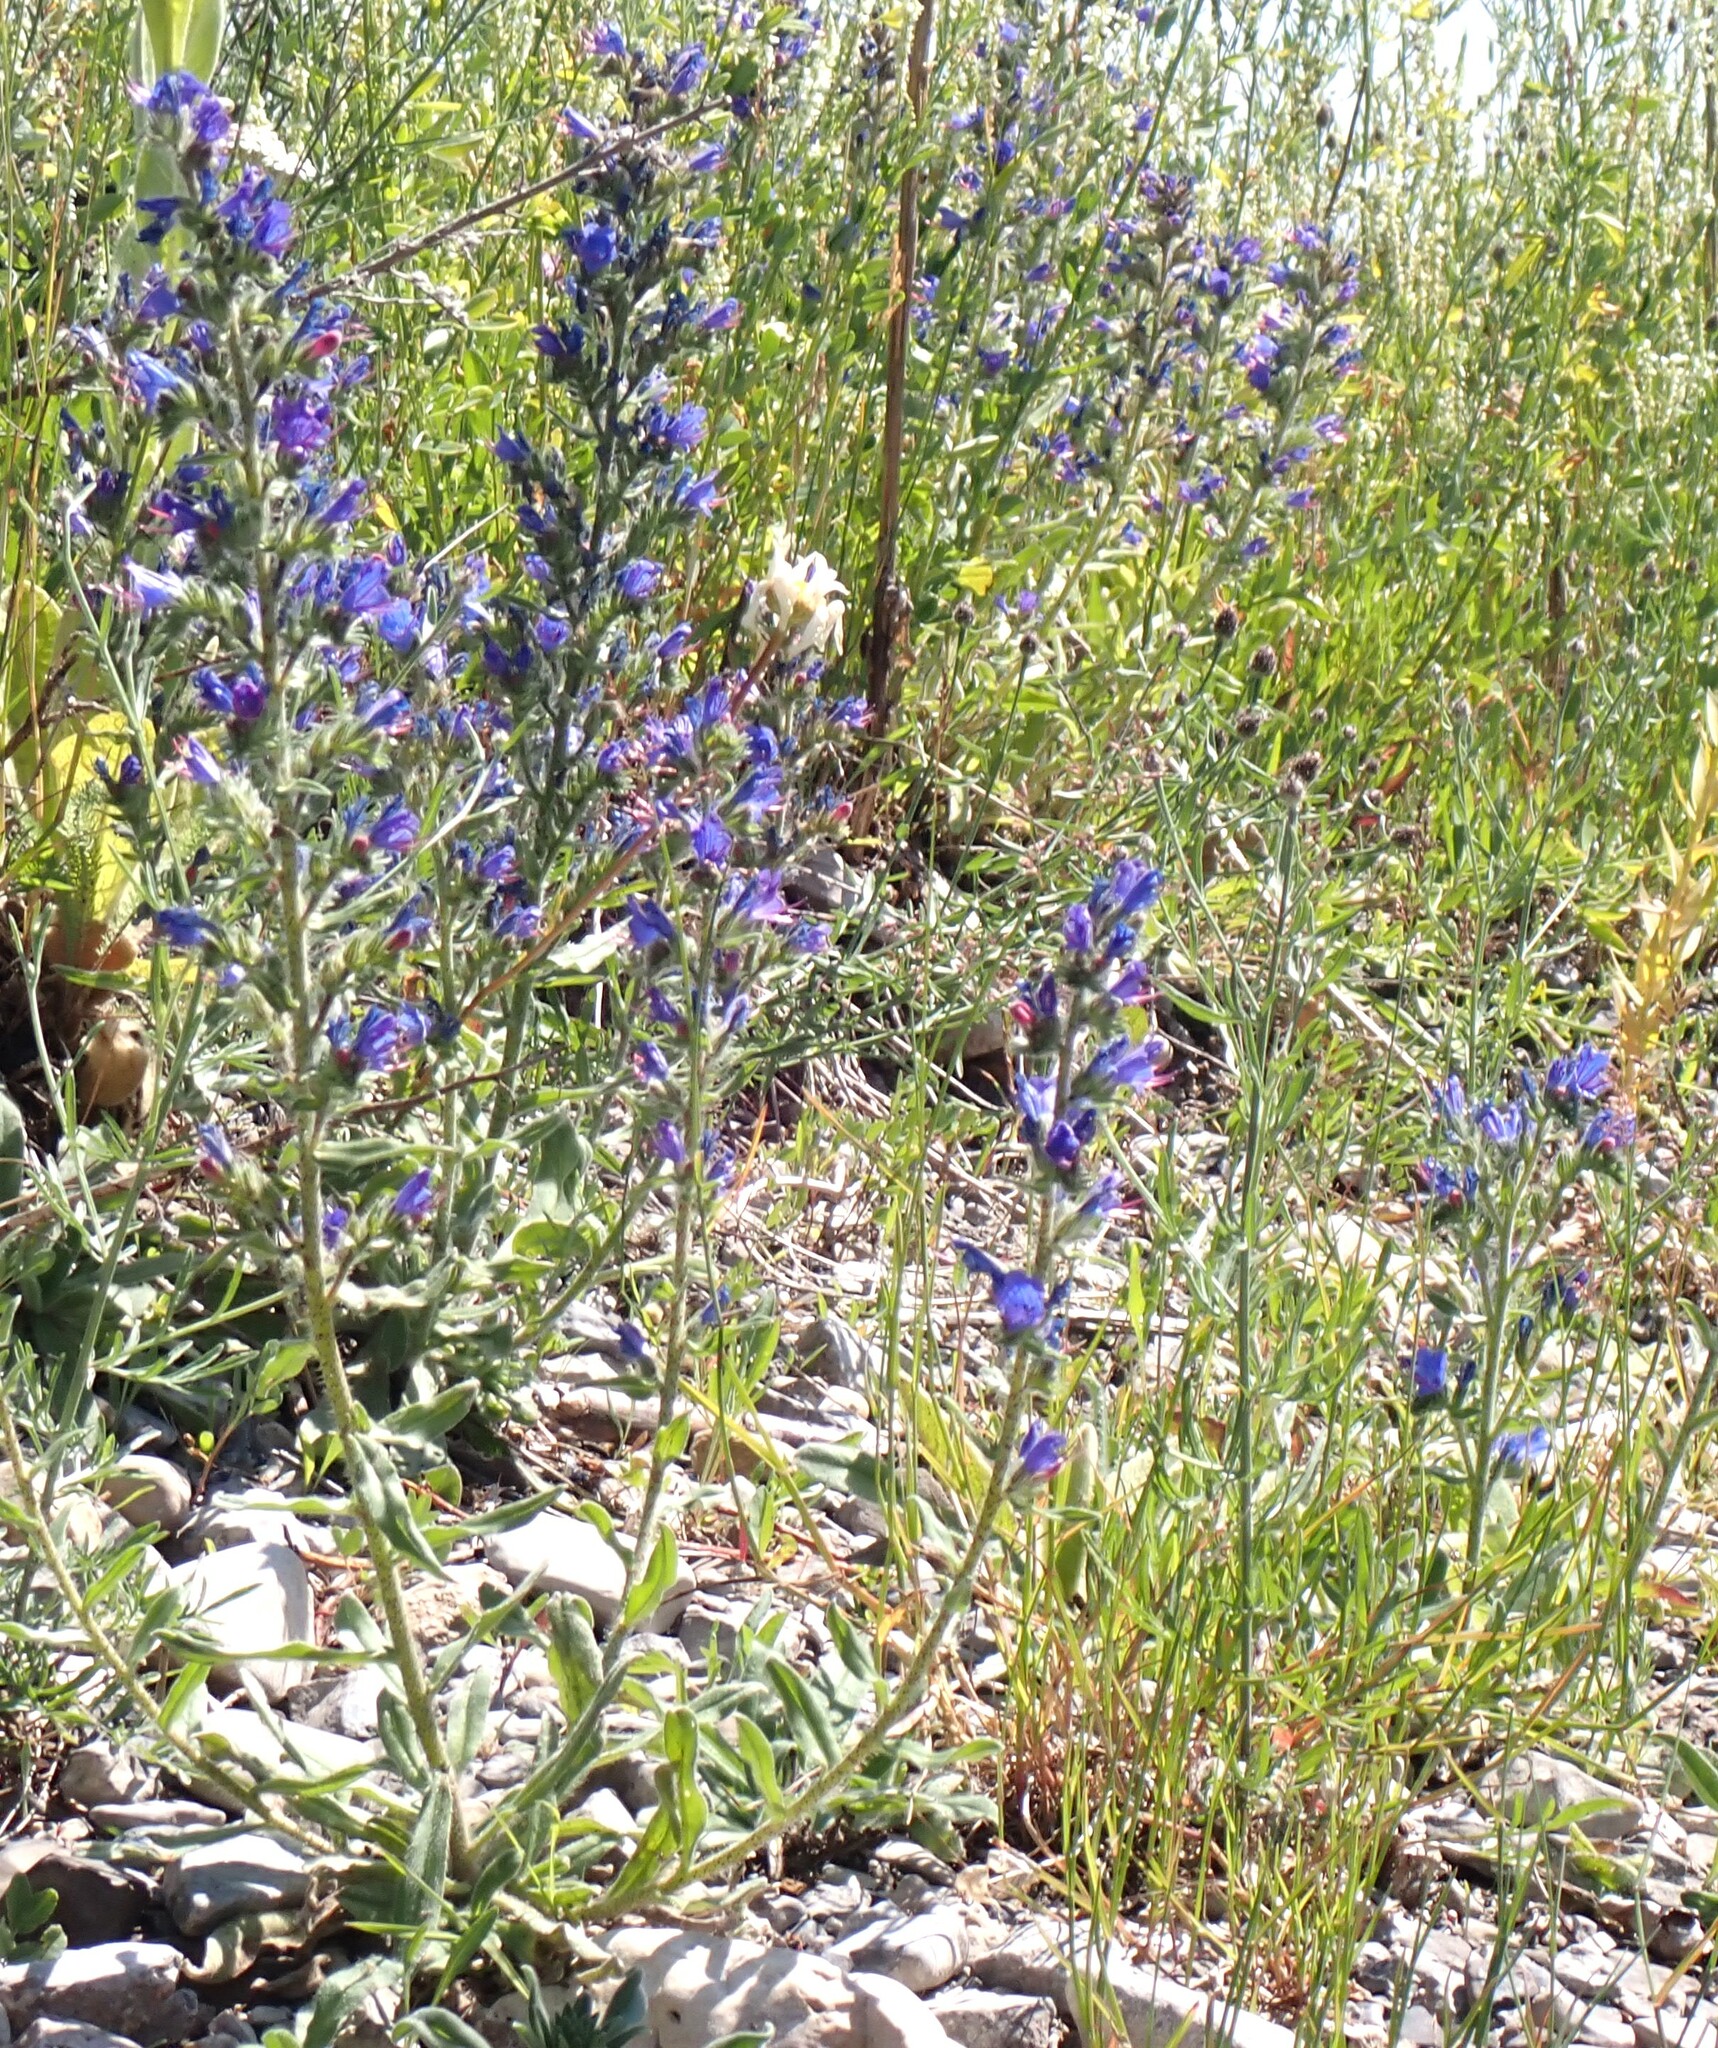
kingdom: Plantae
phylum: Tracheophyta
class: Magnoliopsida
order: Boraginales
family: Boraginaceae
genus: Echium
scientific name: Echium vulgare
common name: Common viper's bugloss
